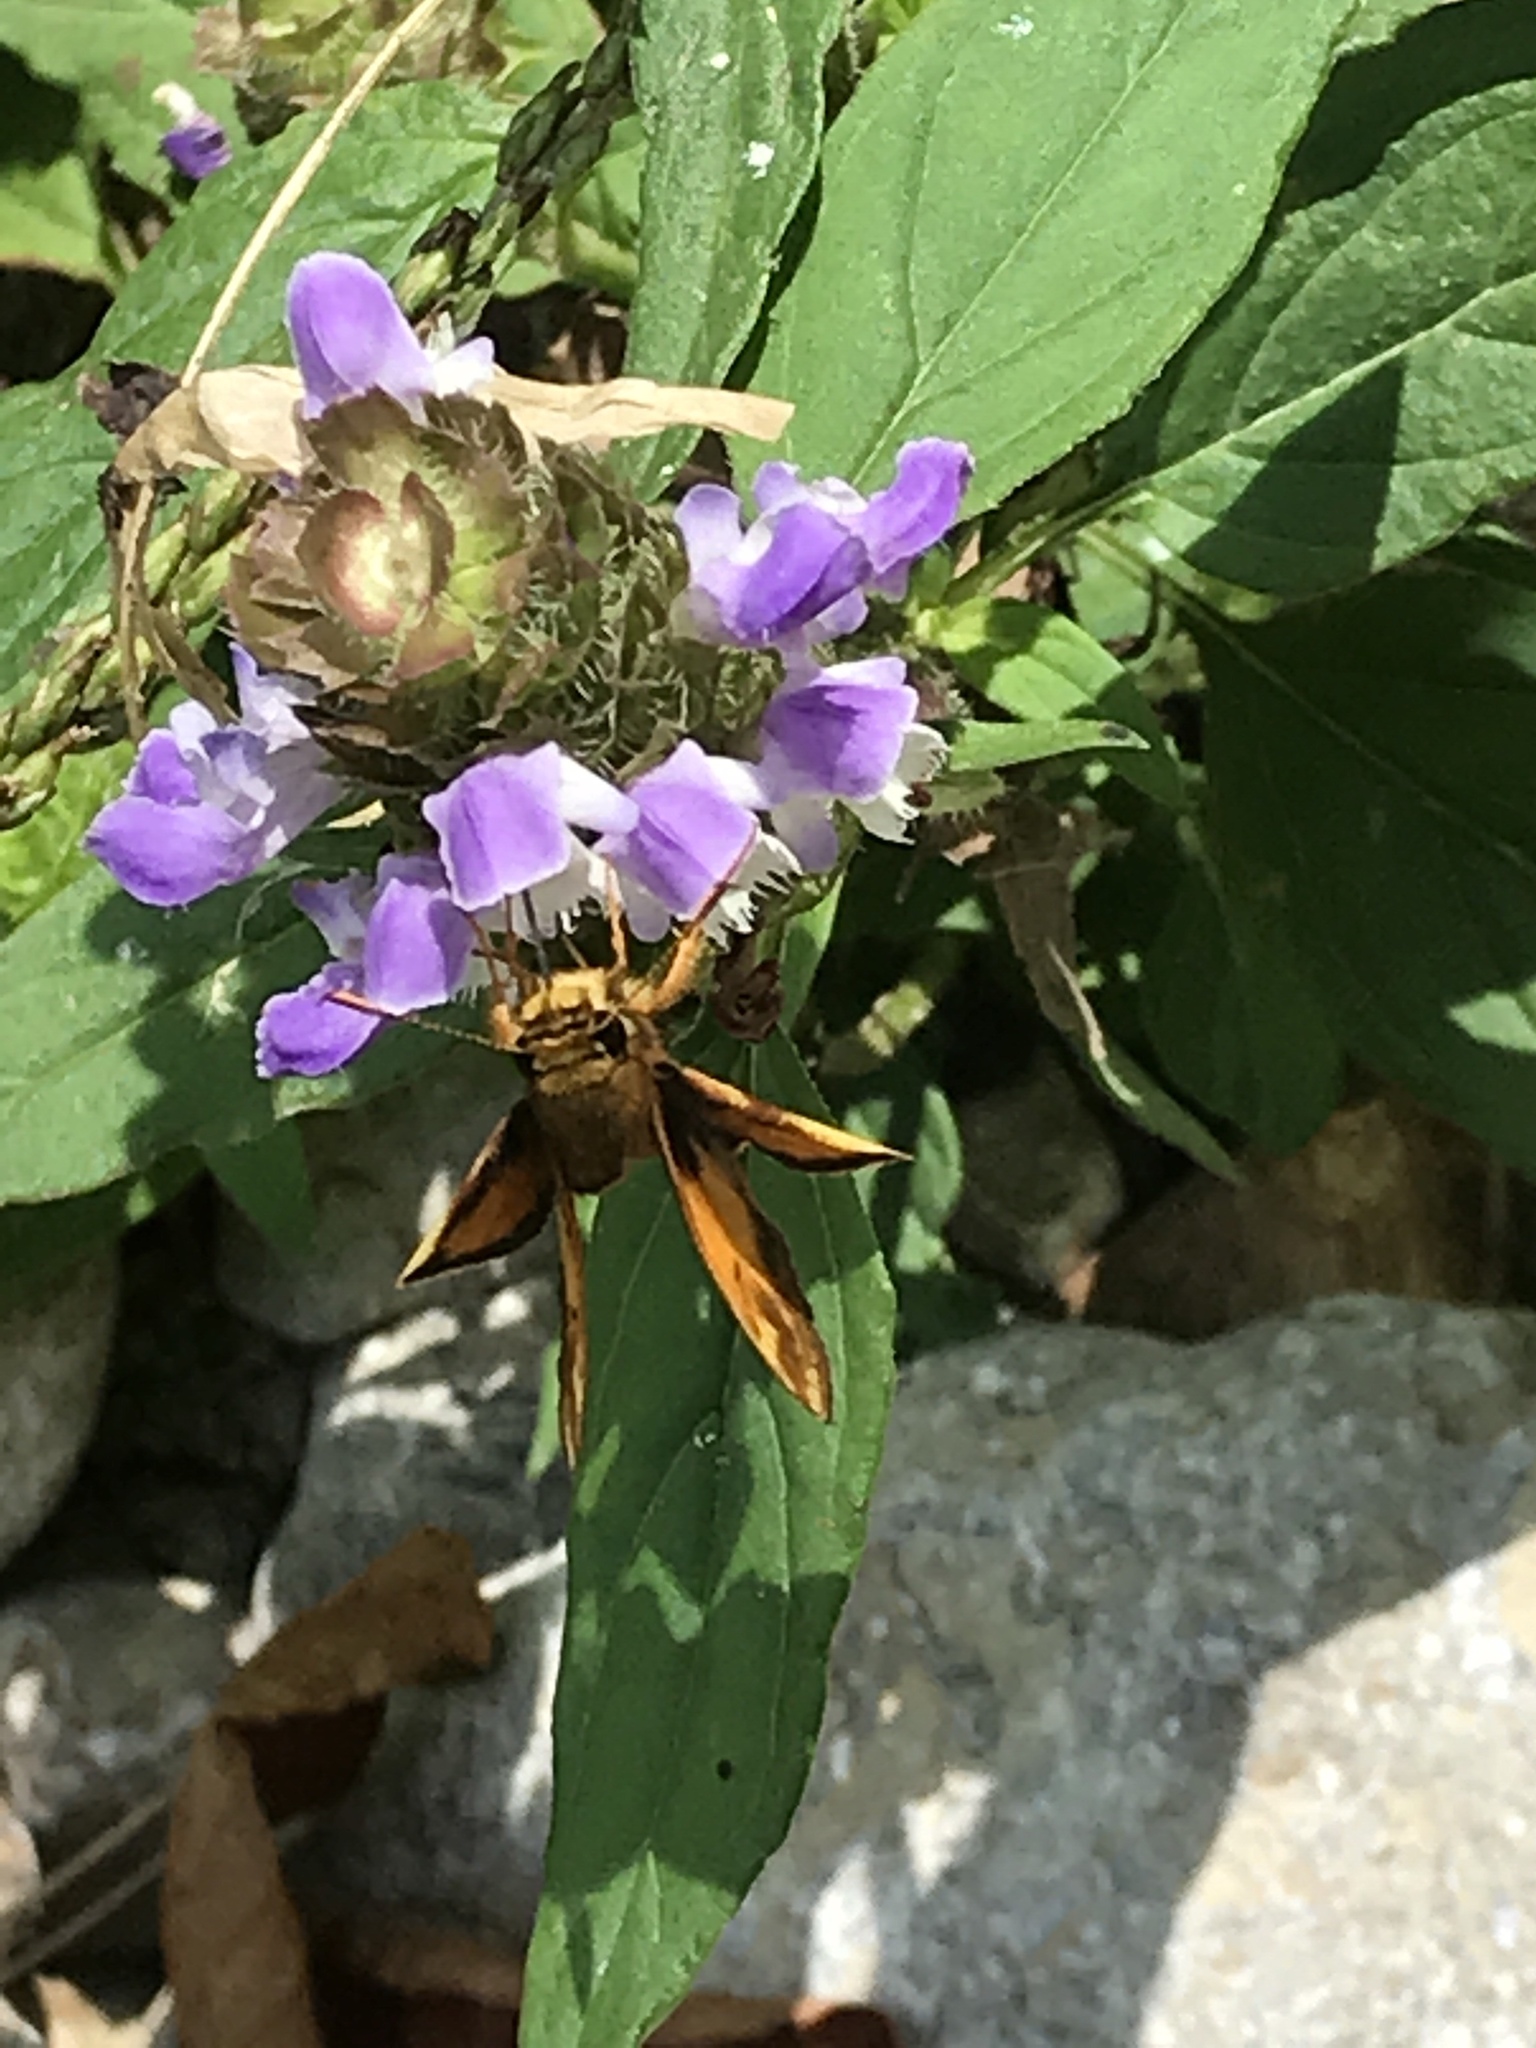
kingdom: Animalia
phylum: Arthropoda
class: Insecta
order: Lepidoptera
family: Hesperiidae
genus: Lon
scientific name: Lon zabulon
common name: Zabulon skipper
